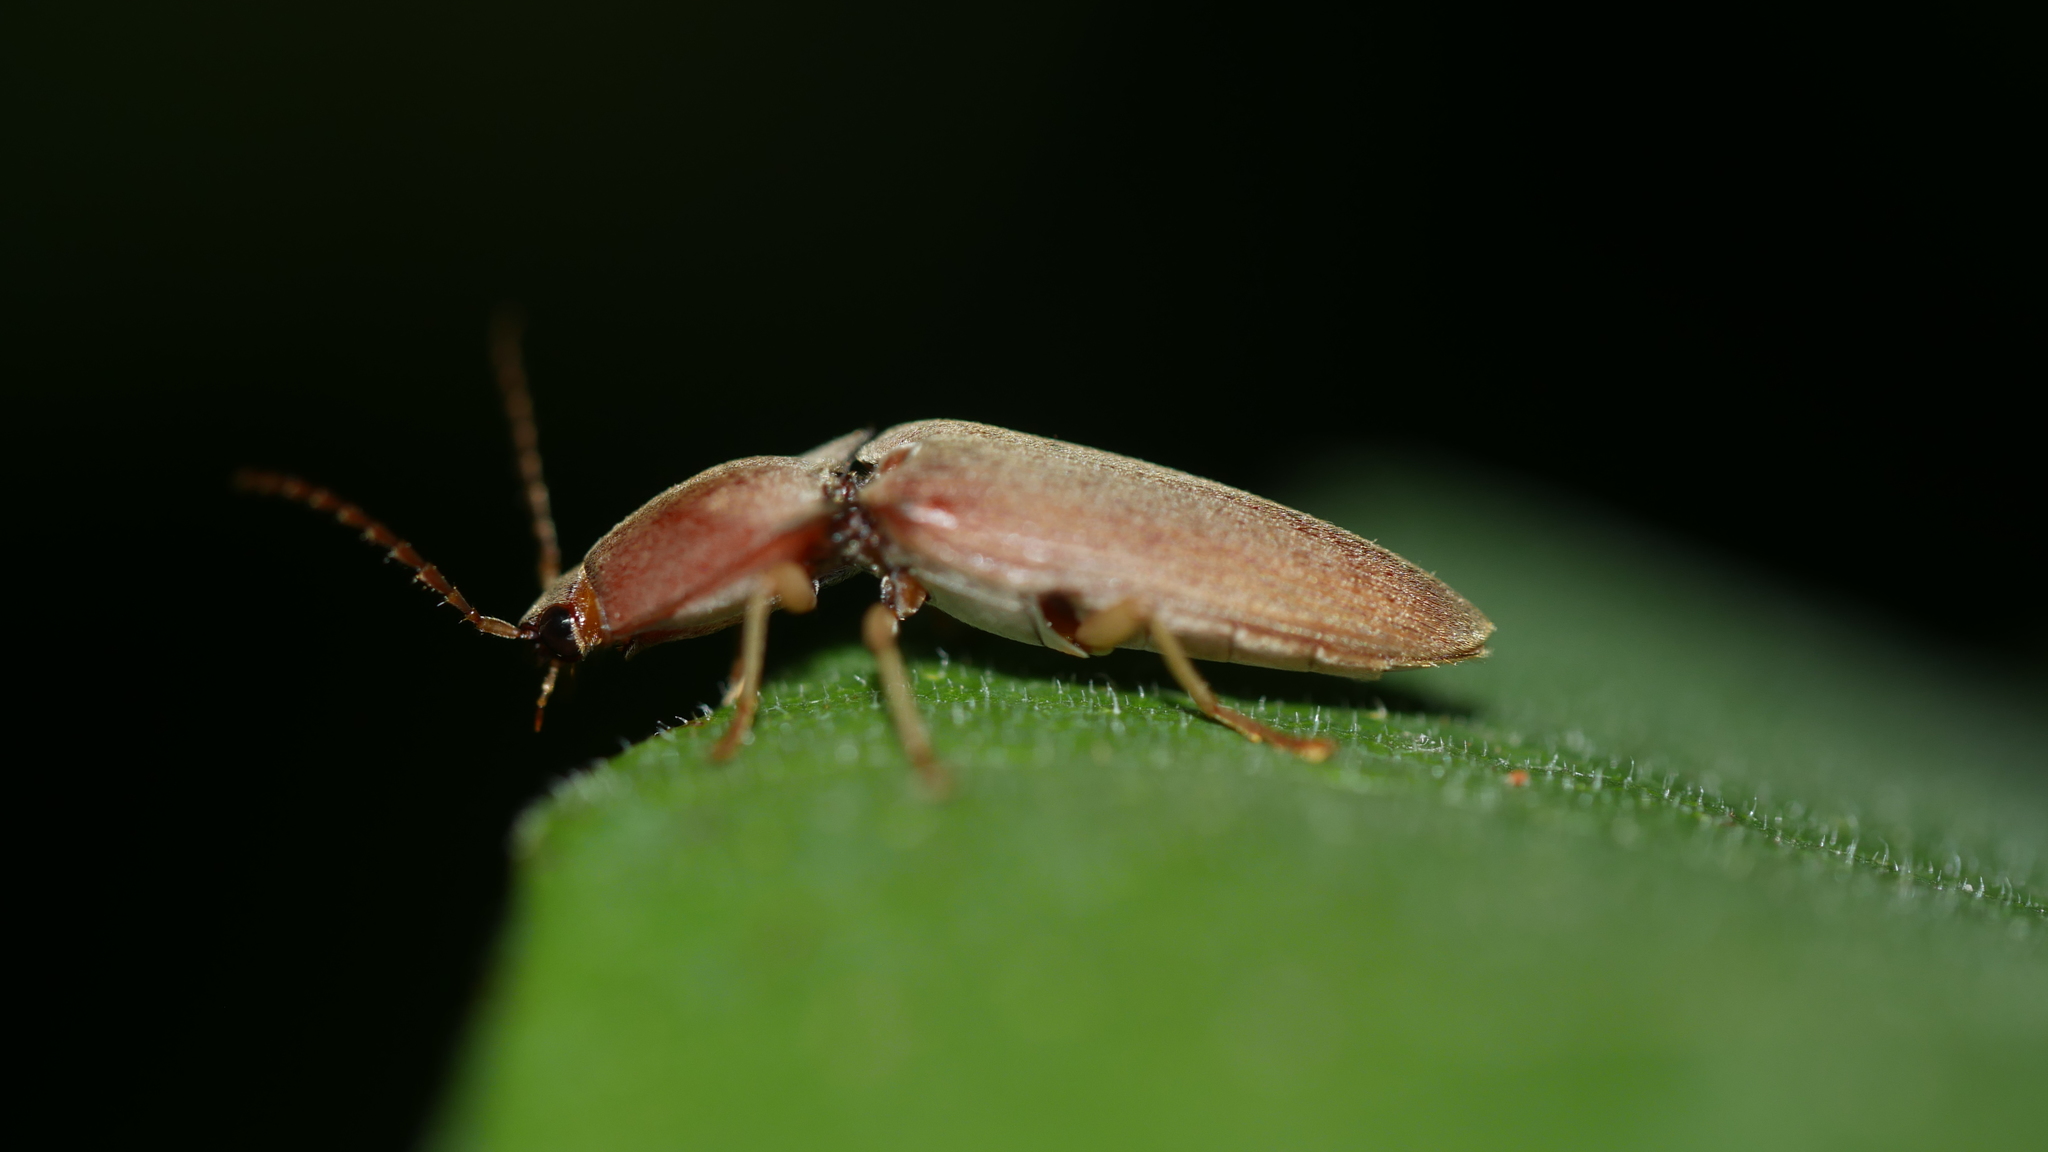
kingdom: Animalia
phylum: Arthropoda
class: Insecta
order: Coleoptera
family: Elateridae
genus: Monocrepidius
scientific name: Monocrepidius lividus
